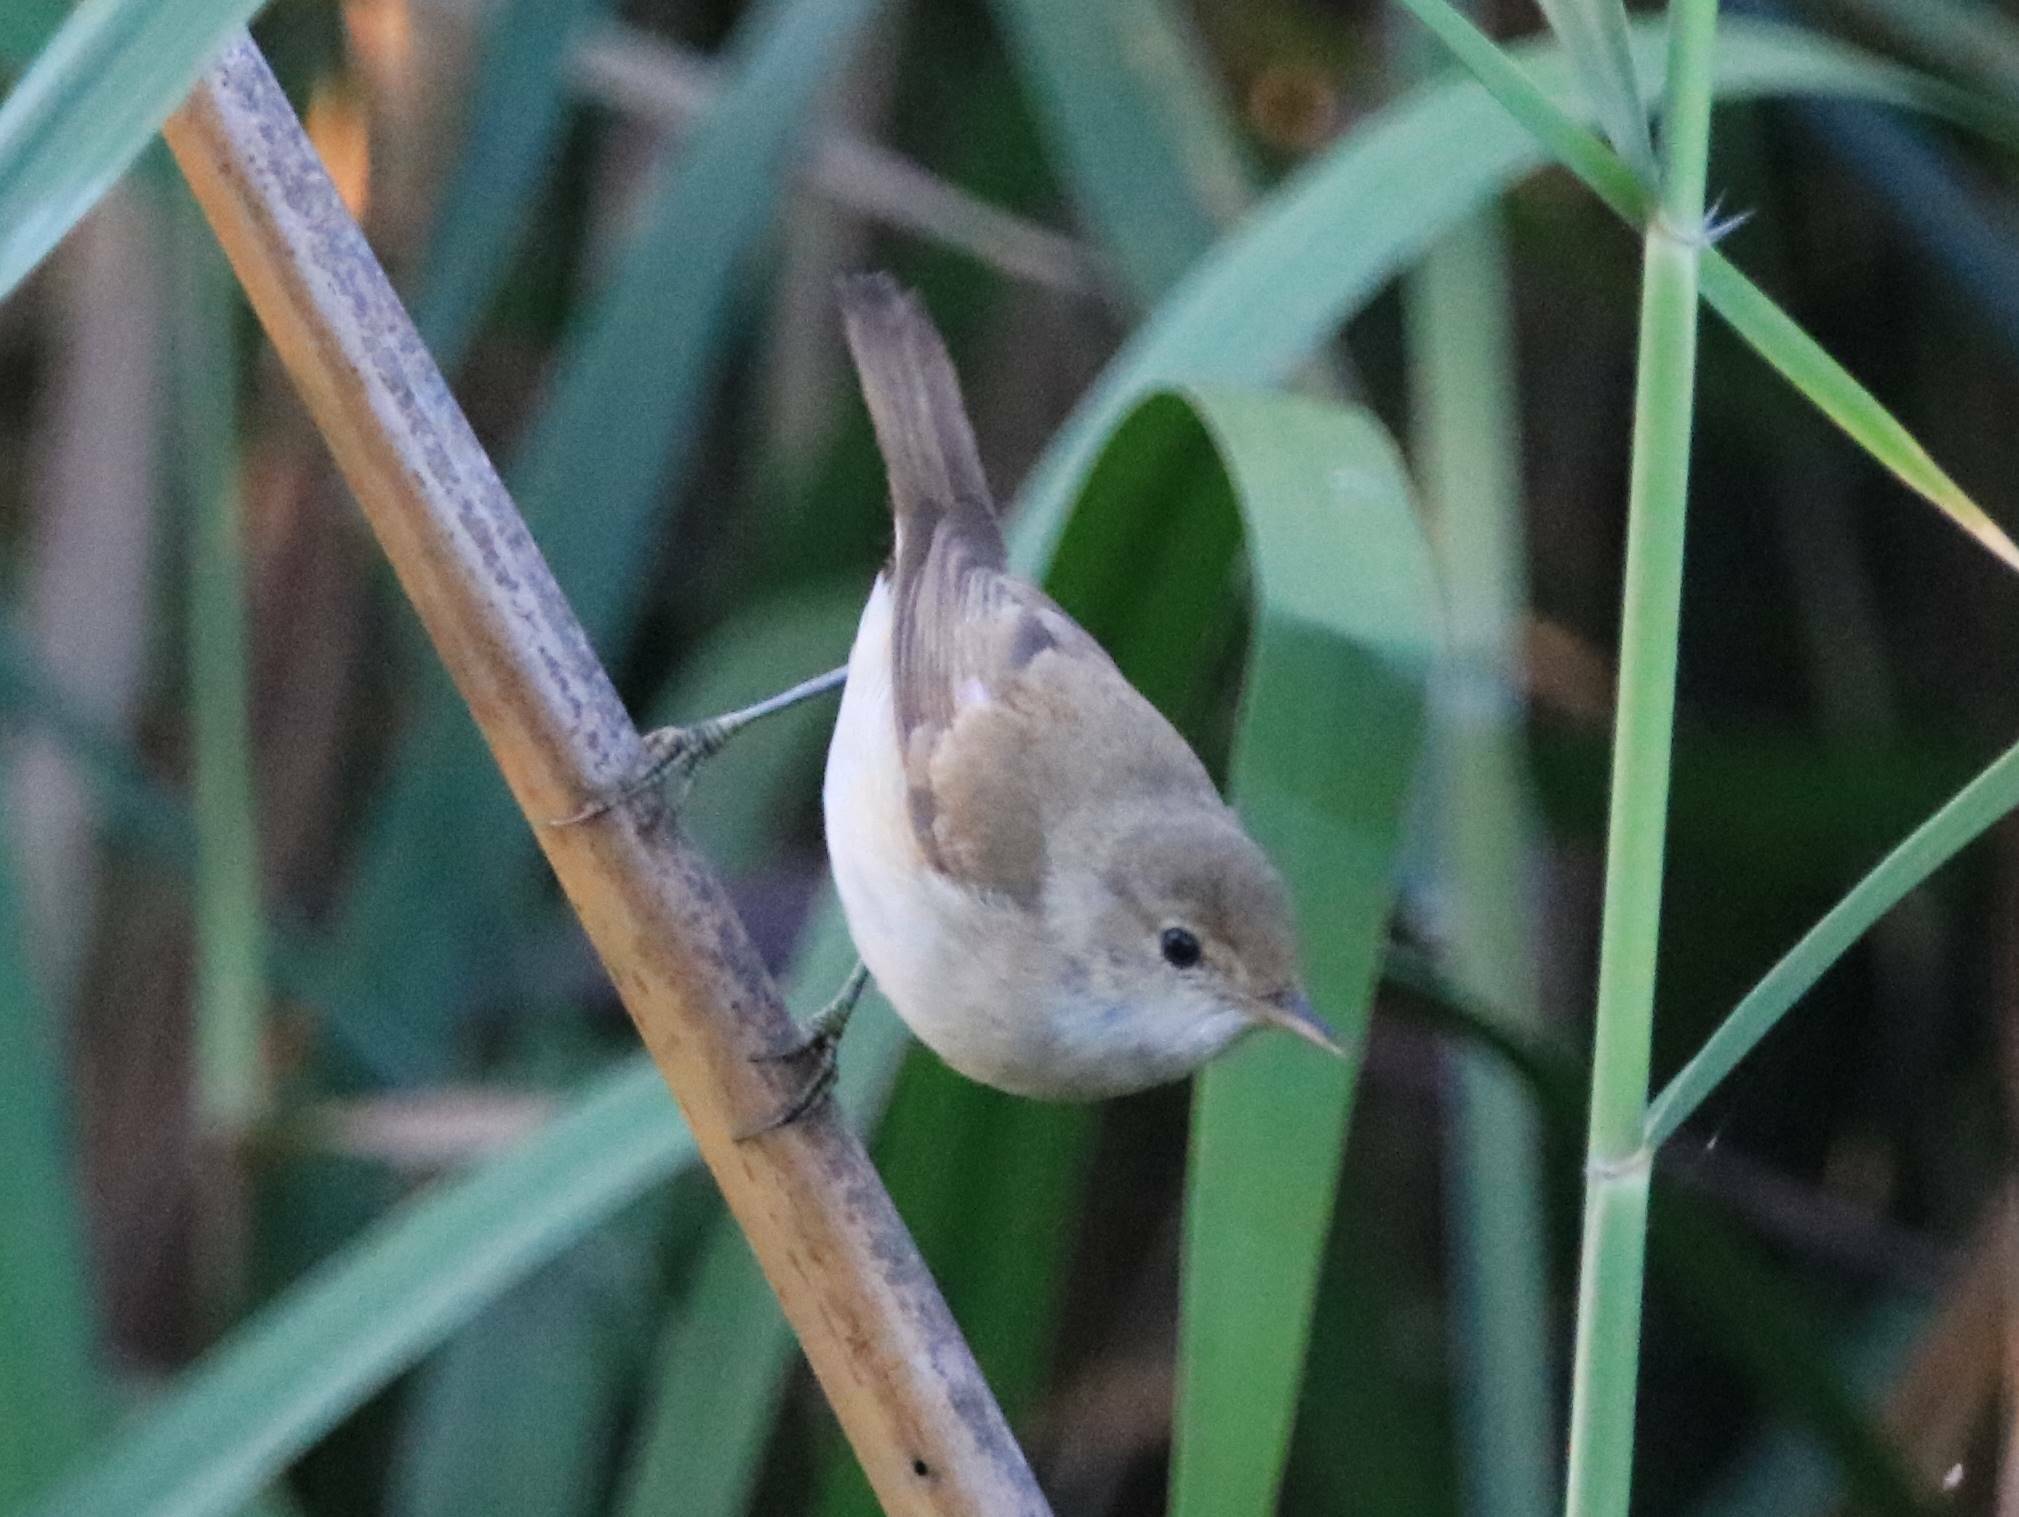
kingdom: Animalia
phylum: Chordata
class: Aves
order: Passeriformes
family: Acrocephalidae
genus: Acrocephalus
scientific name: Acrocephalus scirpaceus
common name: Eurasian reed warbler
